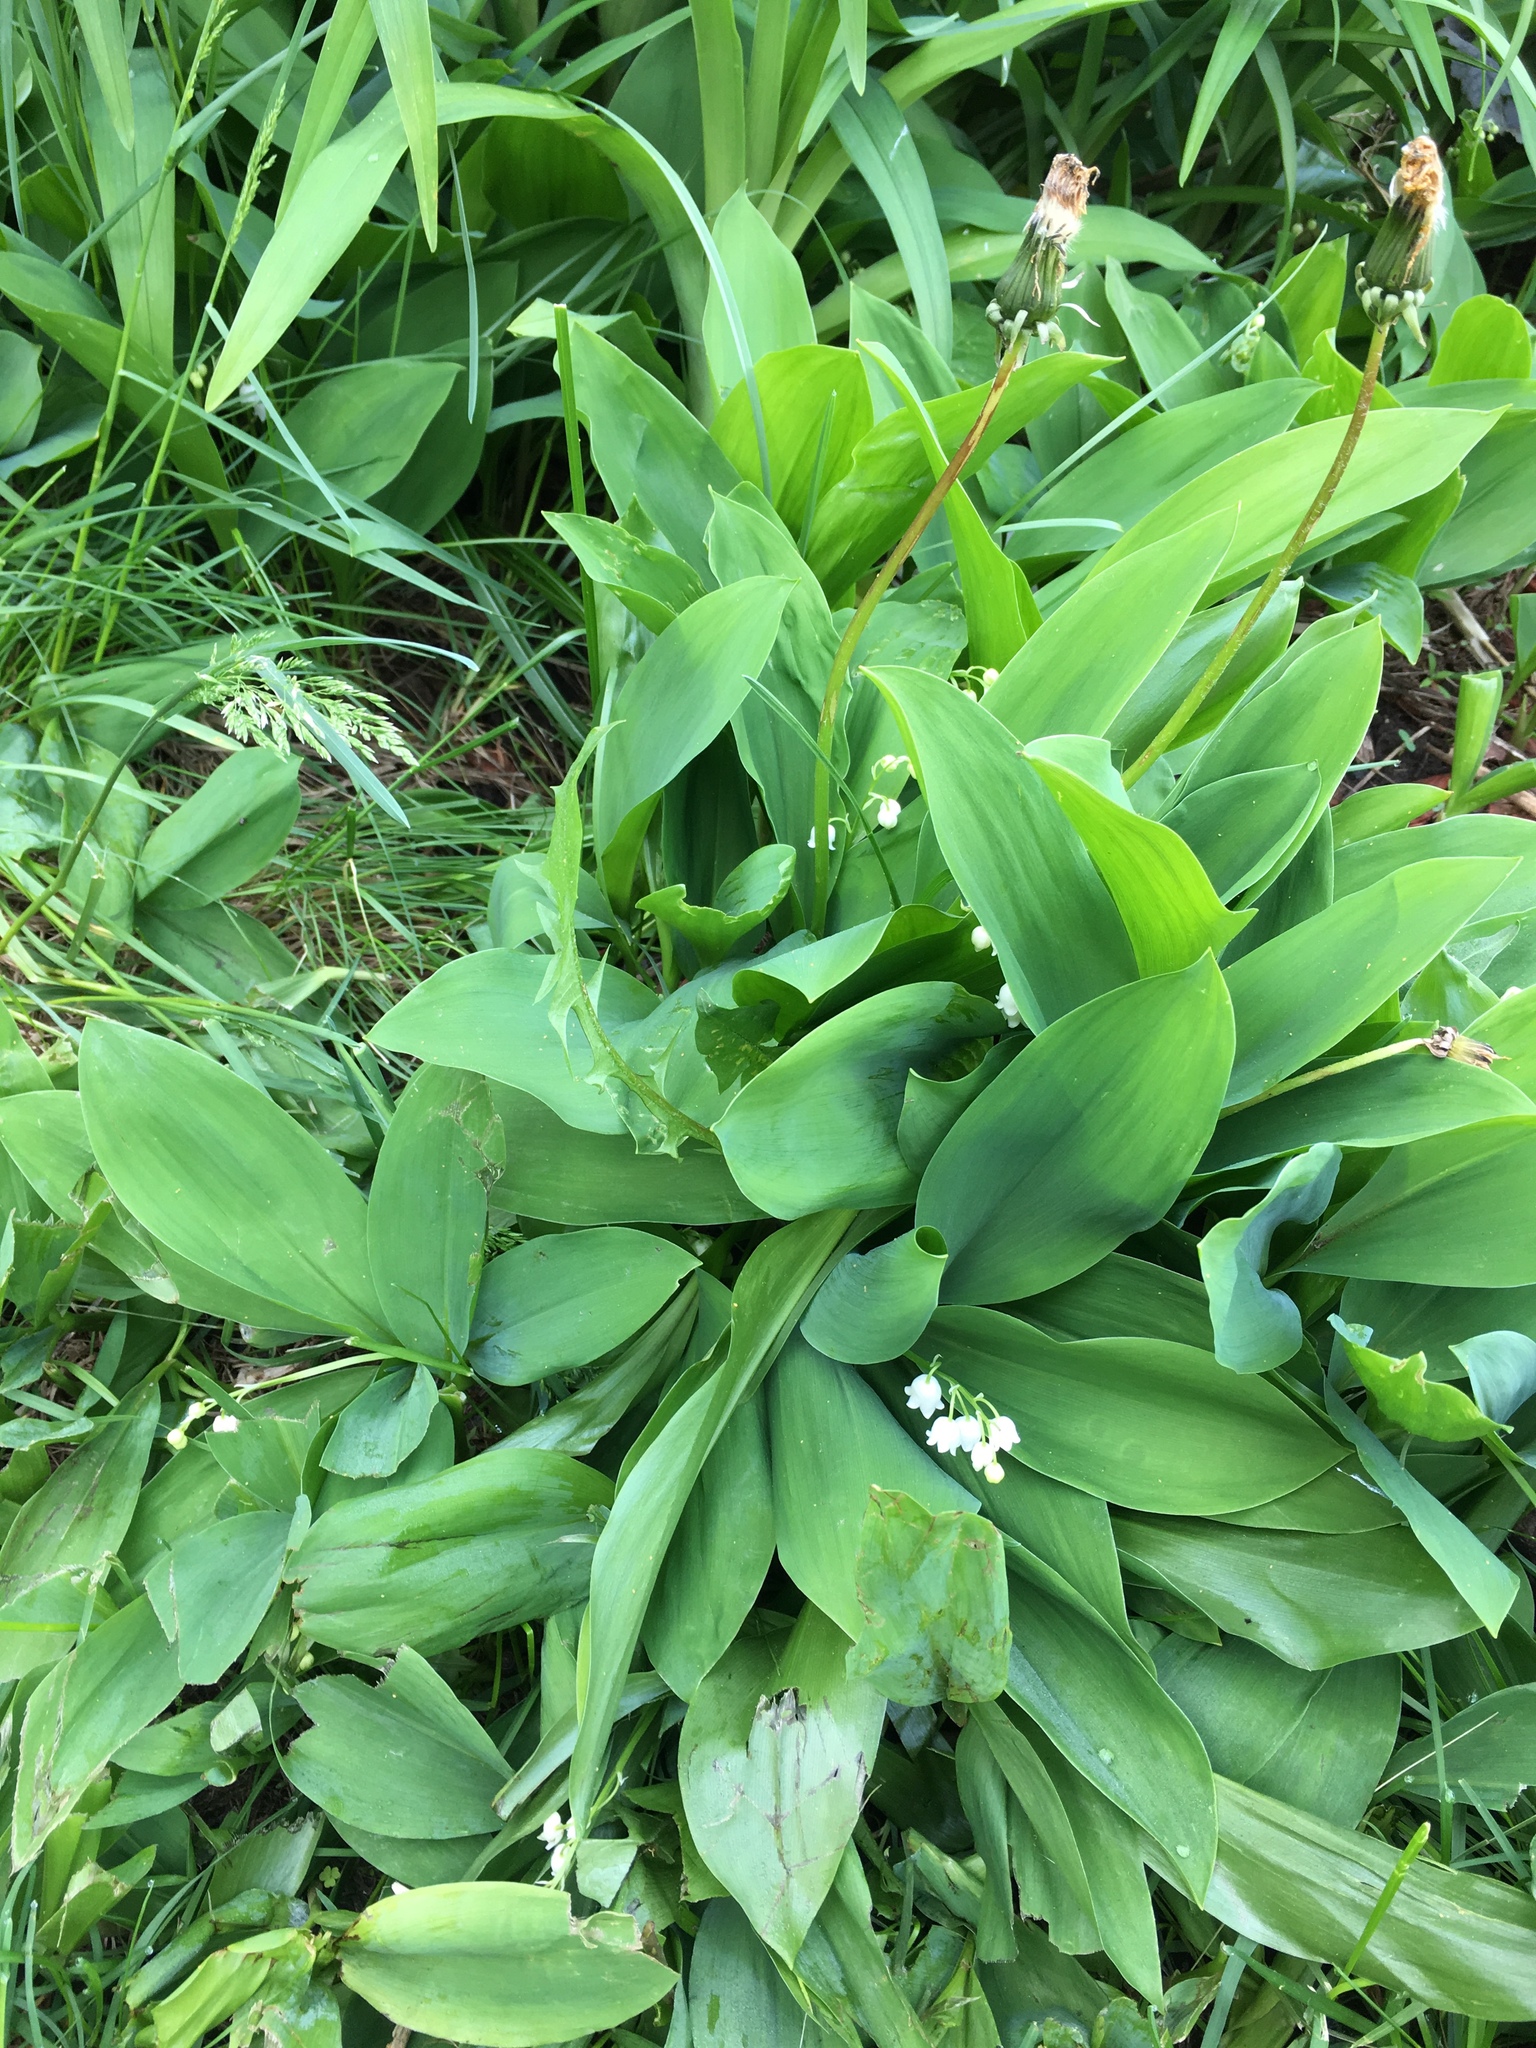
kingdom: Plantae
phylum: Tracheophyta
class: Liliopsida
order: Asparagales
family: Asparagaceae
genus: Convallaria
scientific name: Convallaria majalis
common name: Lily-of-the-valley
